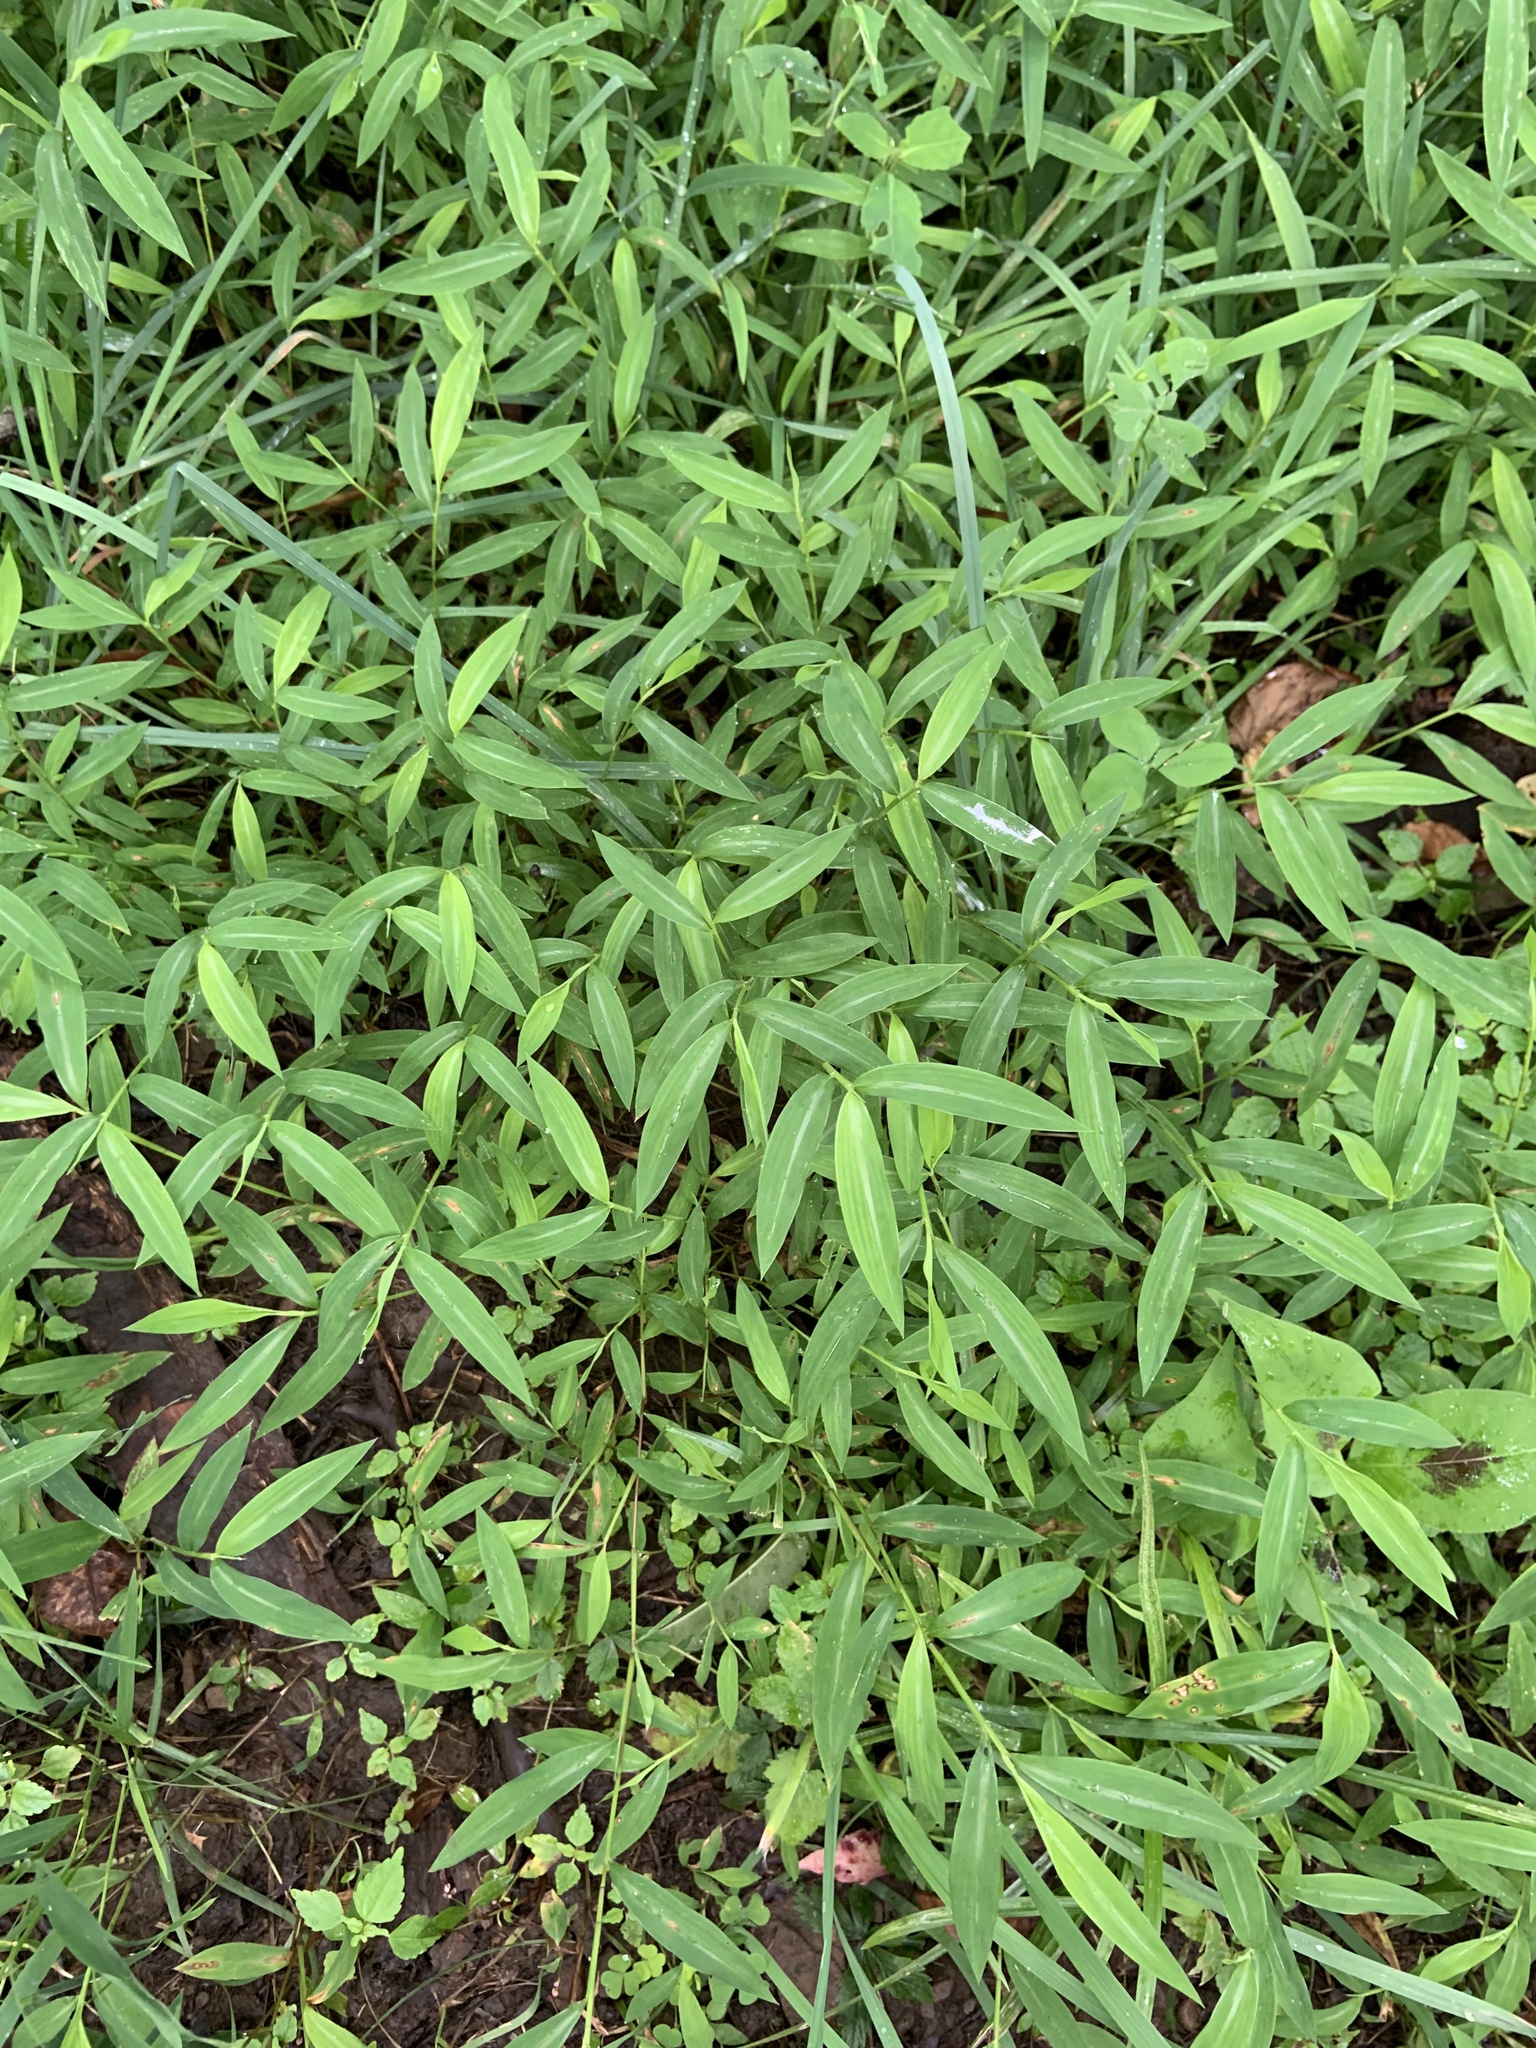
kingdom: Plantae
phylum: Tracheophyta
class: Liliopsida
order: Poales
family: Poaceae
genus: Microstegium
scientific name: Microstegium vimineum
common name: Japanese stiltgrass
